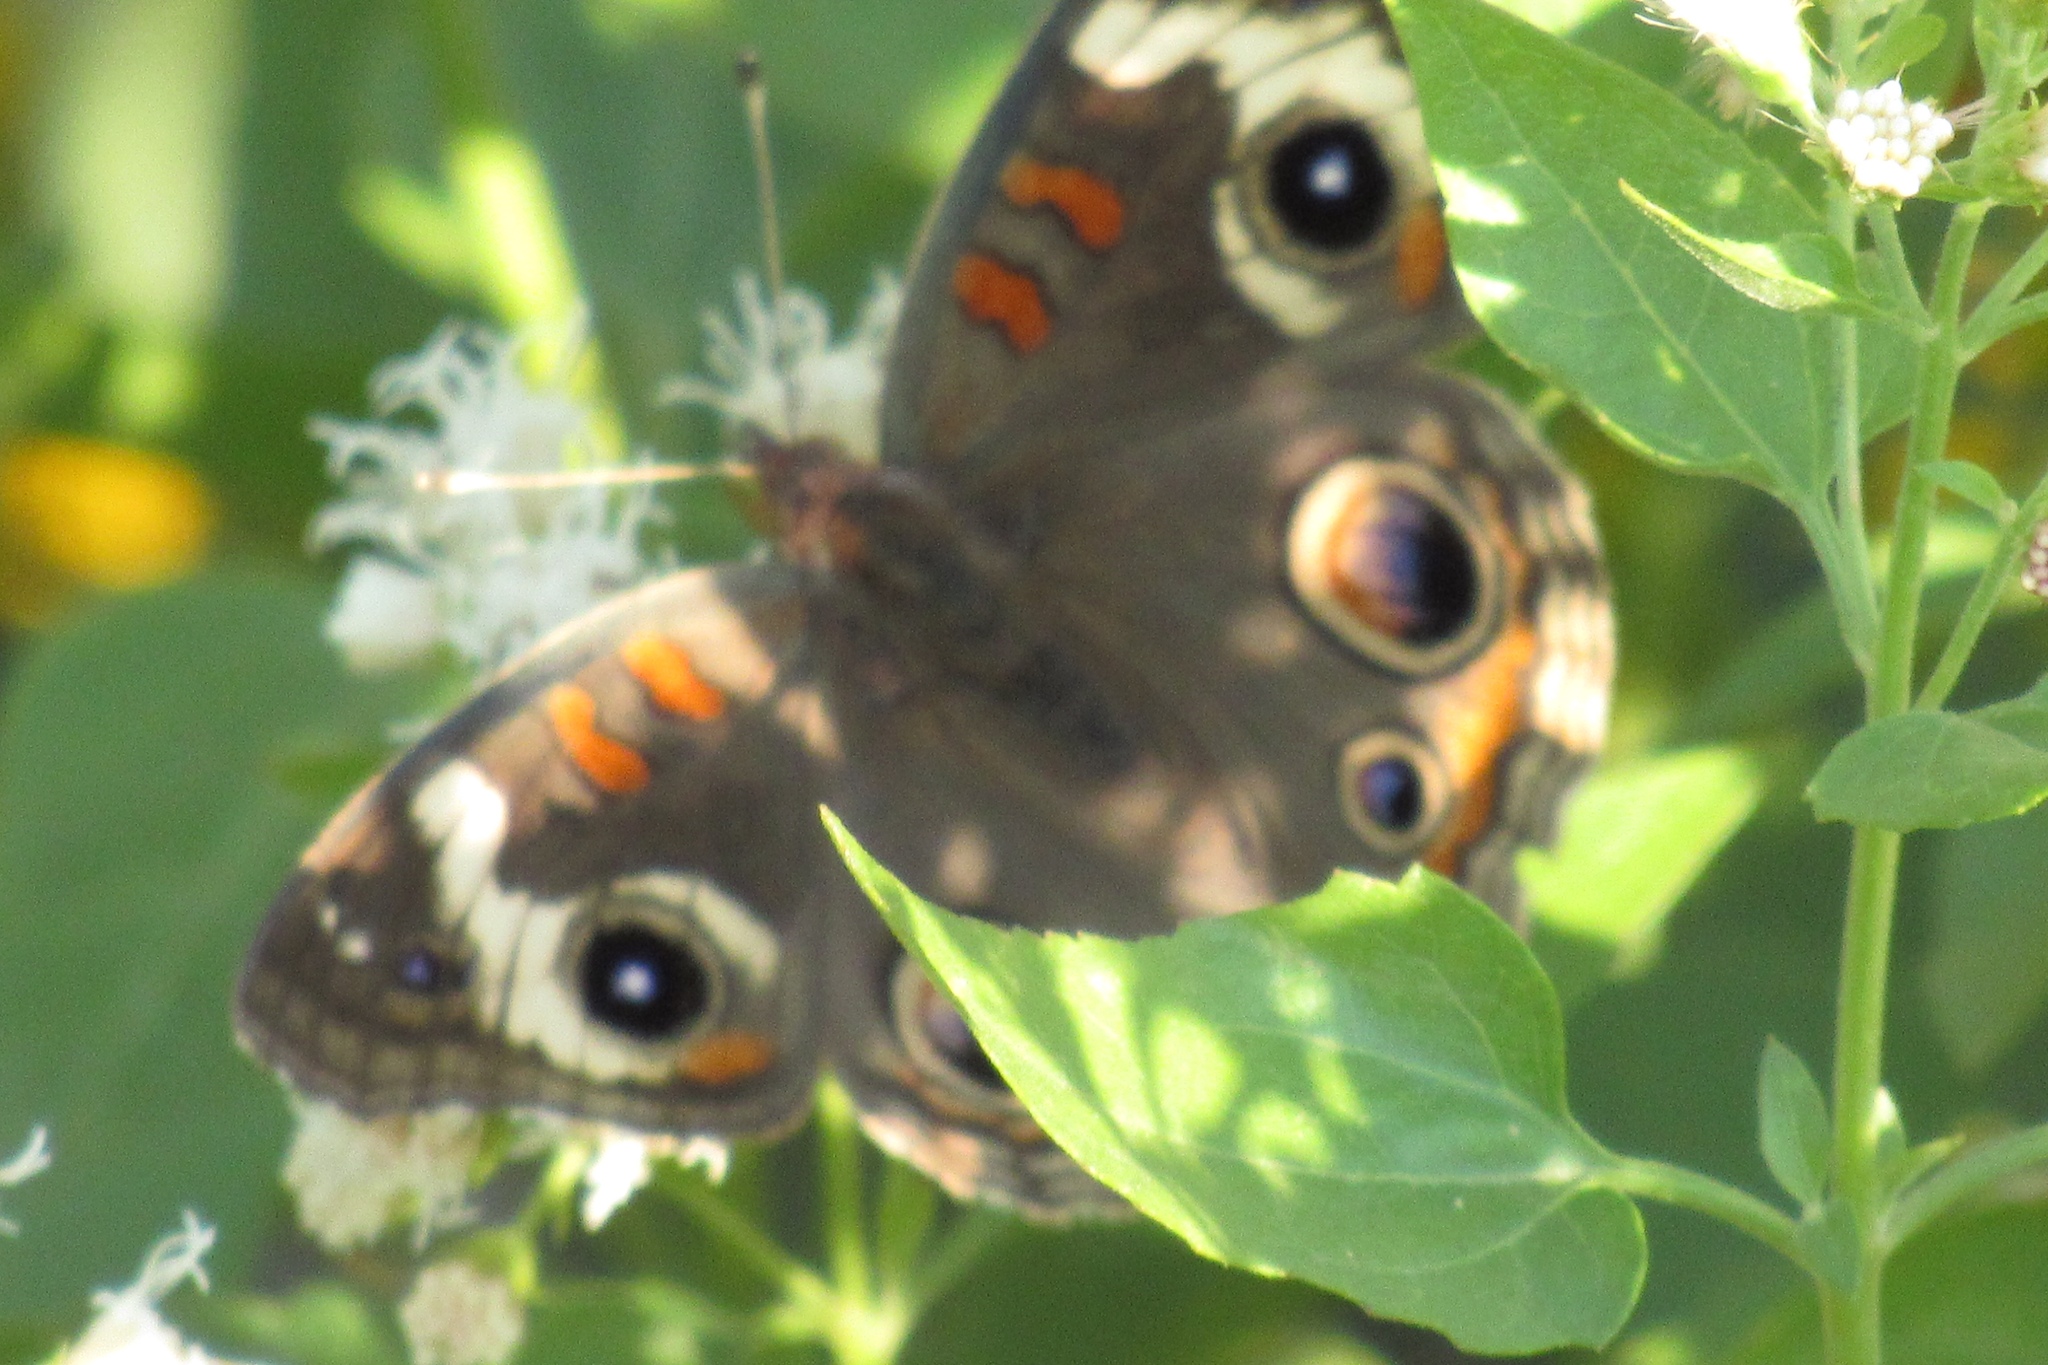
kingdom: Animalia
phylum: Arthropoda
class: Insecta
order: Lepidoptera
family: Nymphalidae
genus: Junonia
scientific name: Junonia grisea
